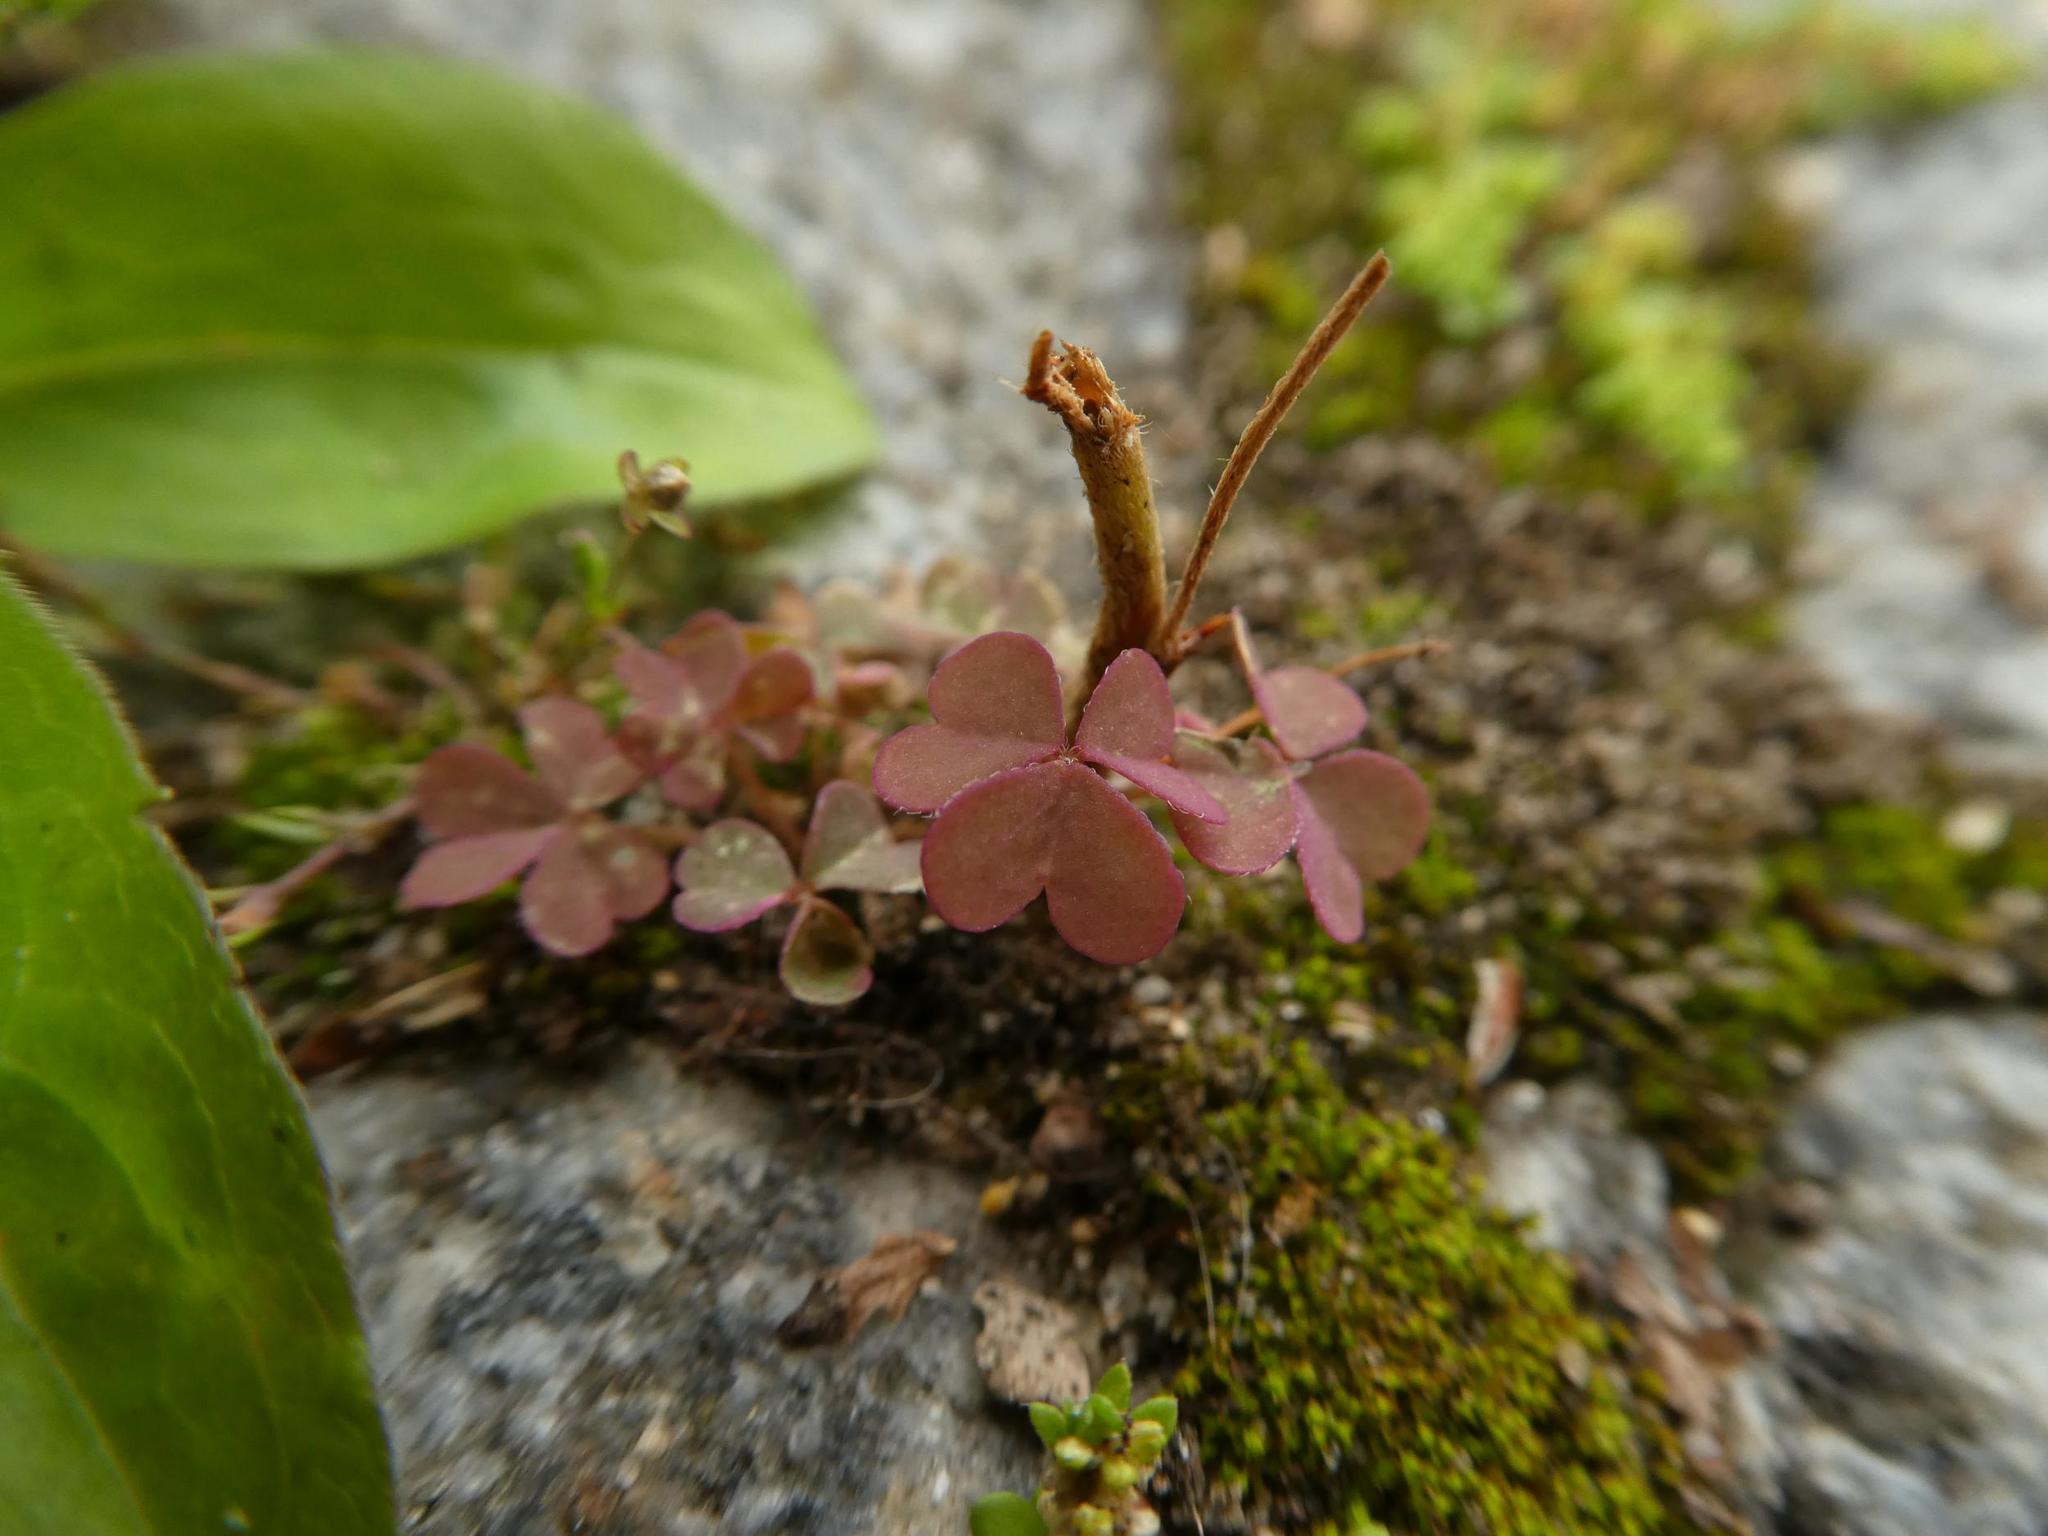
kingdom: Plantae
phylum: Tracheophyta
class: Magnoliopsida
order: Oxalidales
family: Oxalidaceae
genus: Oxalis
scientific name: Oxalis corniculata
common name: Procumbent yellow-sorrel
